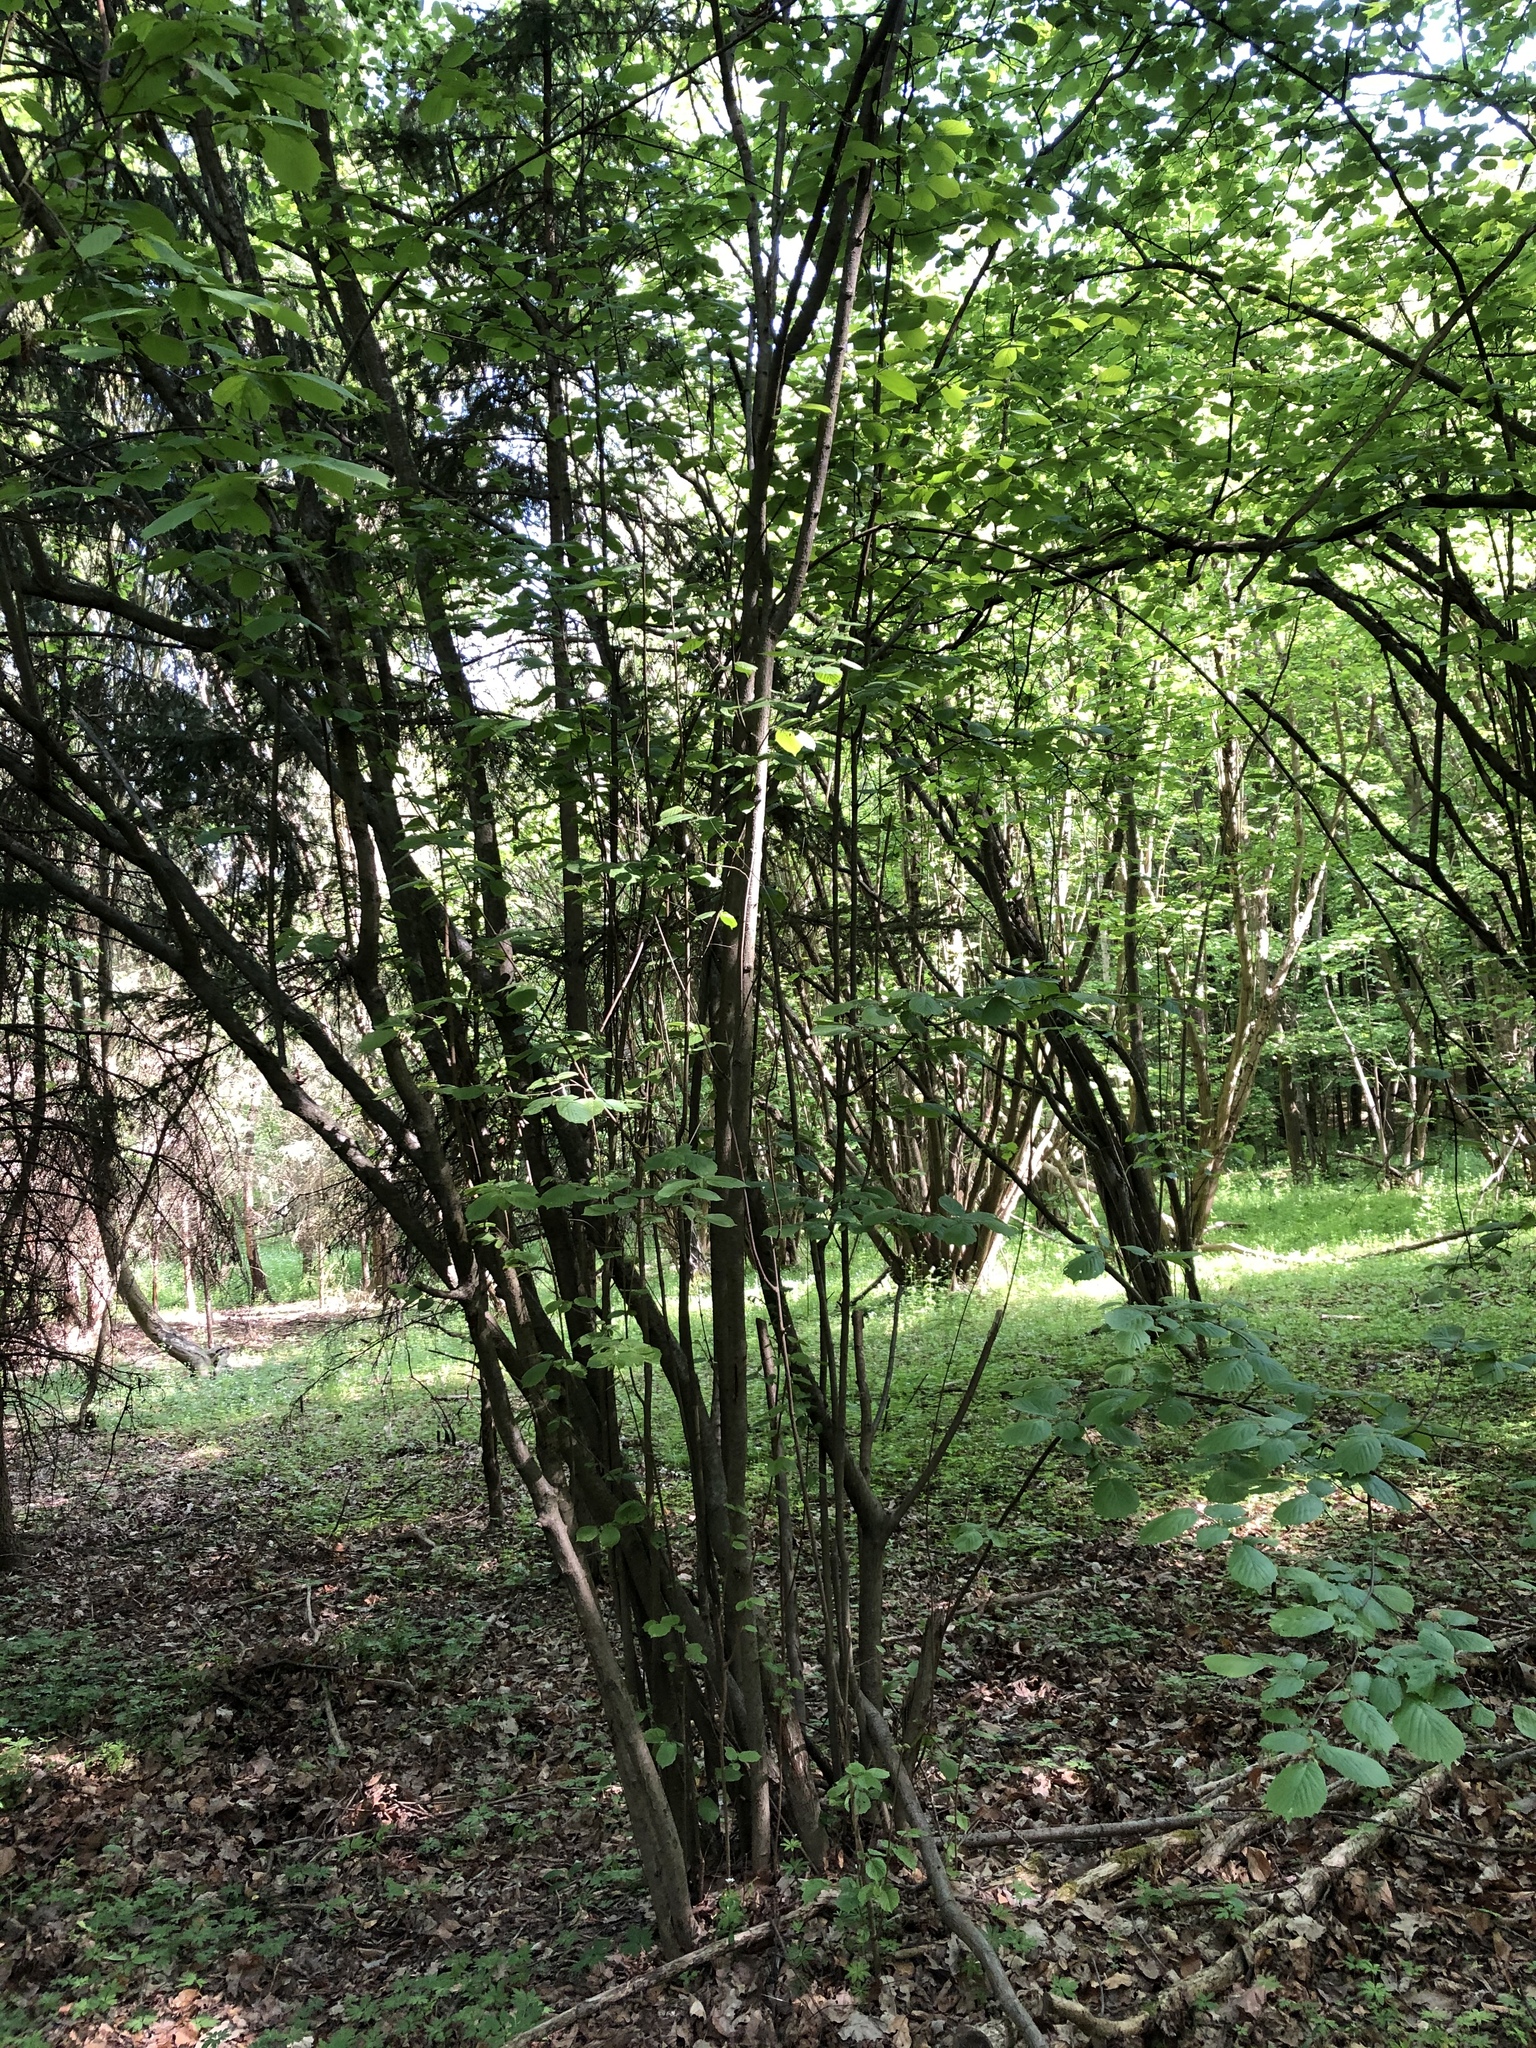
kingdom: Plantae
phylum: Tracheophyta
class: Magnoliopsida
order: Fagales
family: Betulaceae
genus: Corylus
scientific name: Corylus avellana
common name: European hazel
